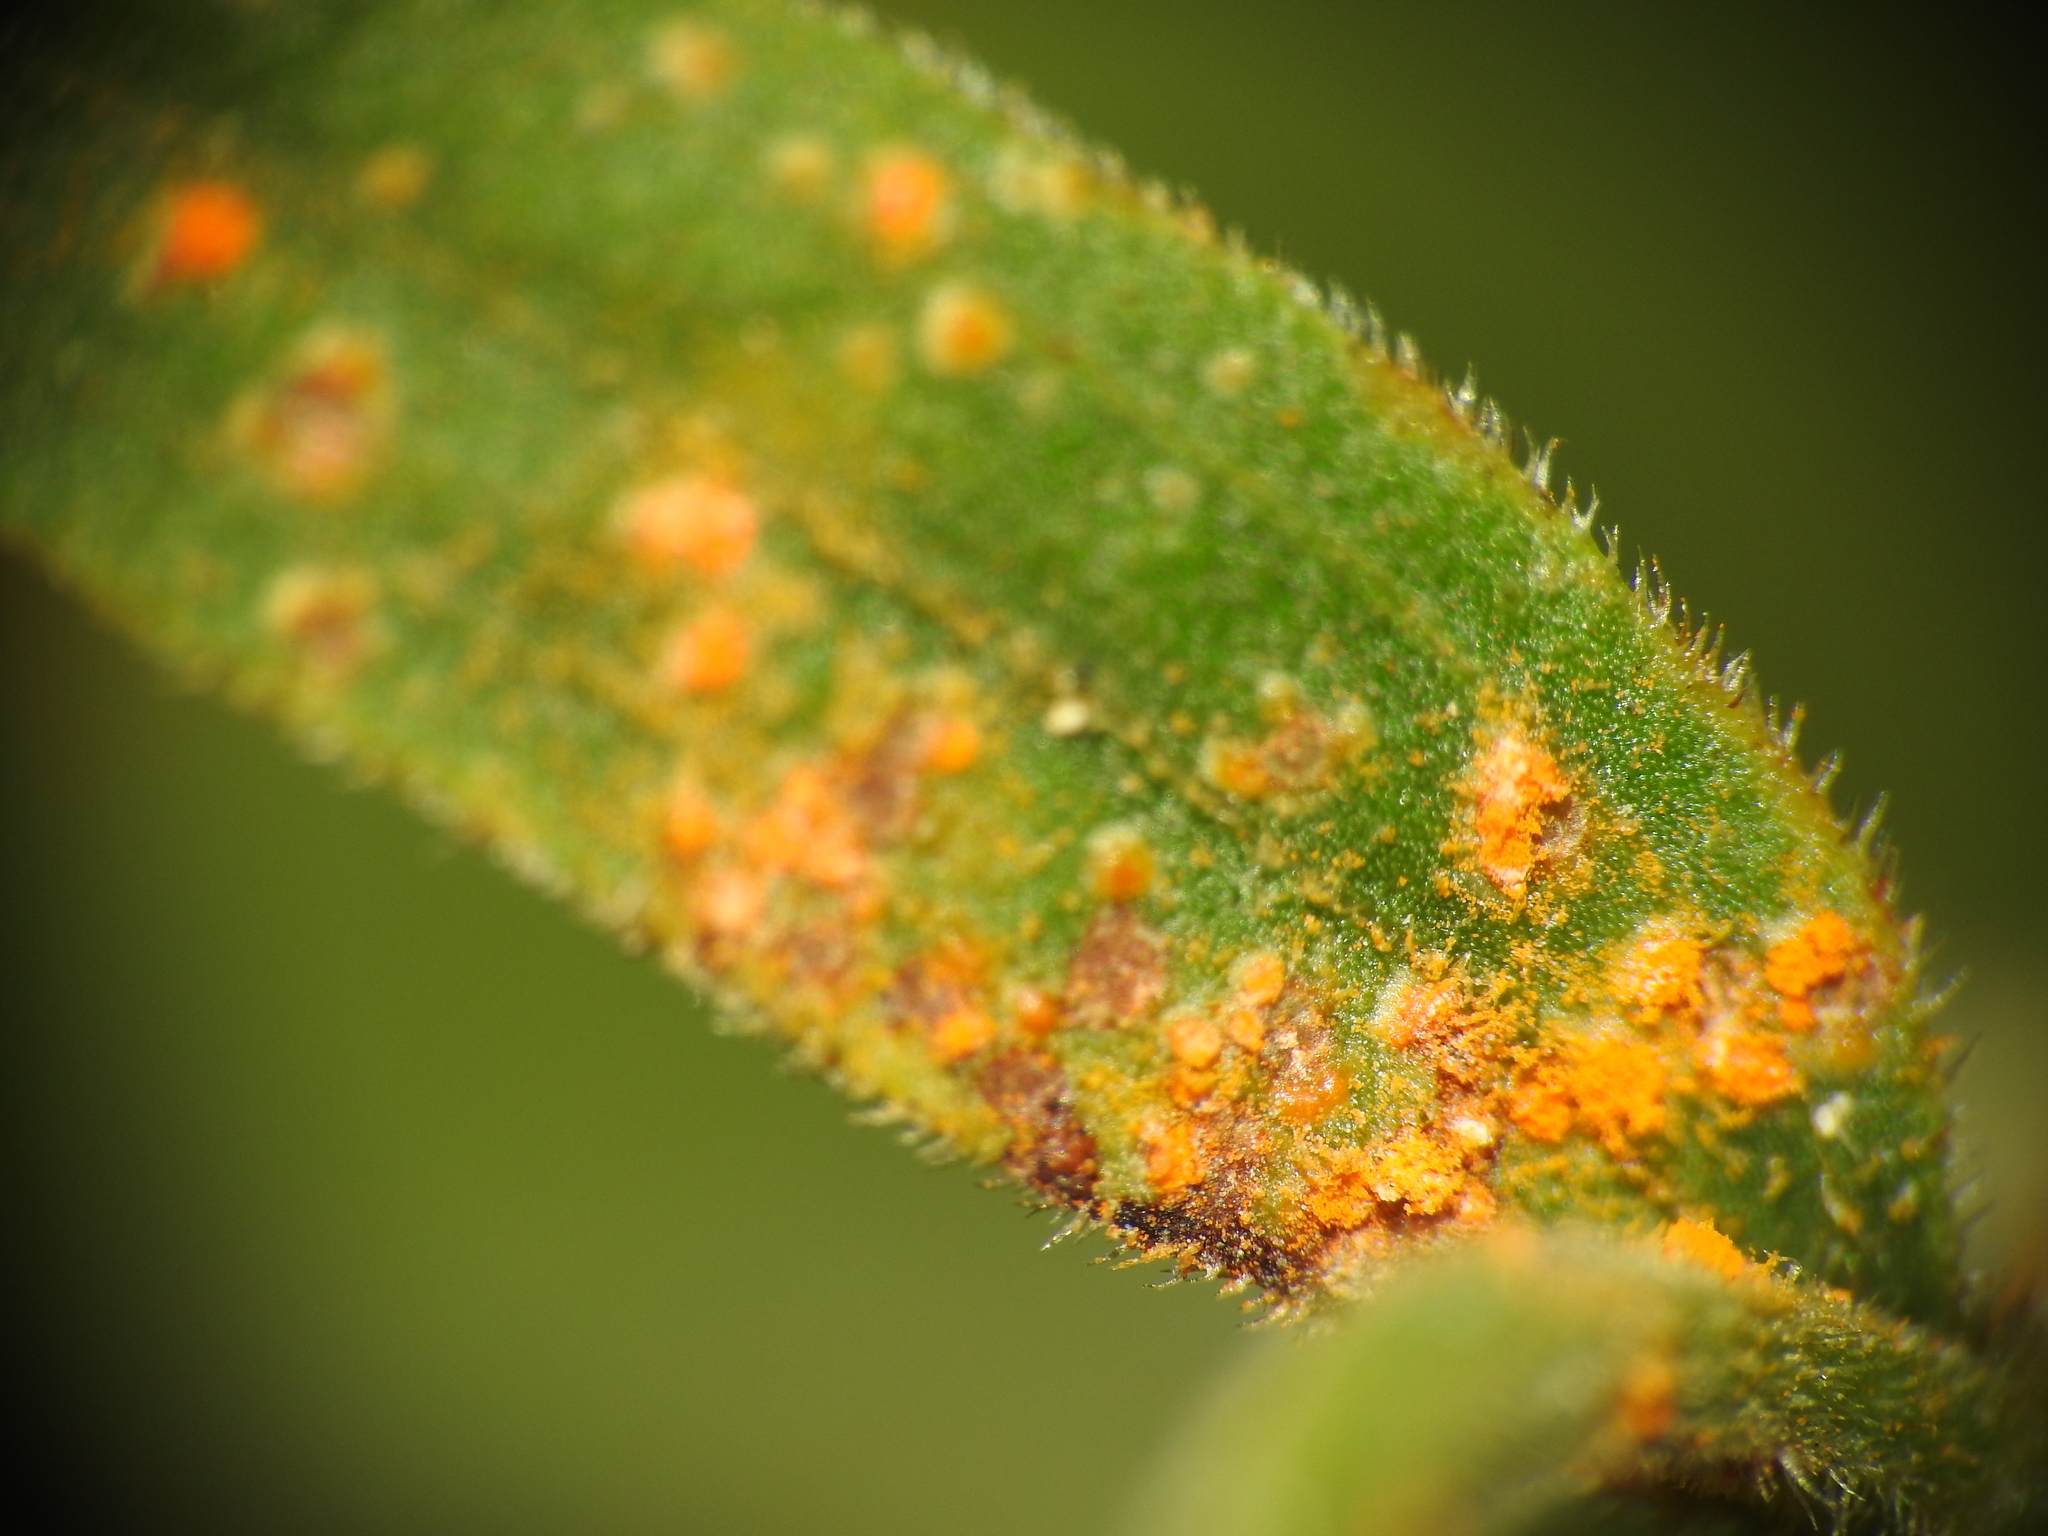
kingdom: Fungi
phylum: Basidiomycota
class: Pucciniomycetes
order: Pucciniales
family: Coleosporiaceae
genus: Coleosporium
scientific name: Coleosporium asterum
